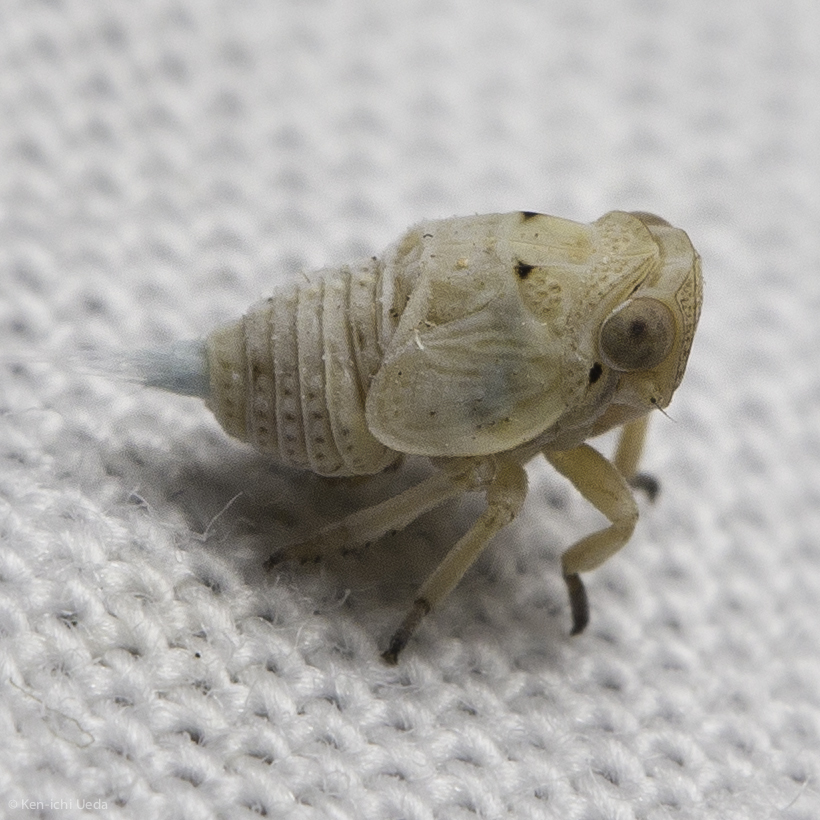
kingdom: Animalia
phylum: Arthropoda
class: Insecta
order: Hemiptera
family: Issidae
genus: Agalmatium
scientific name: Agalmatium bilobum
